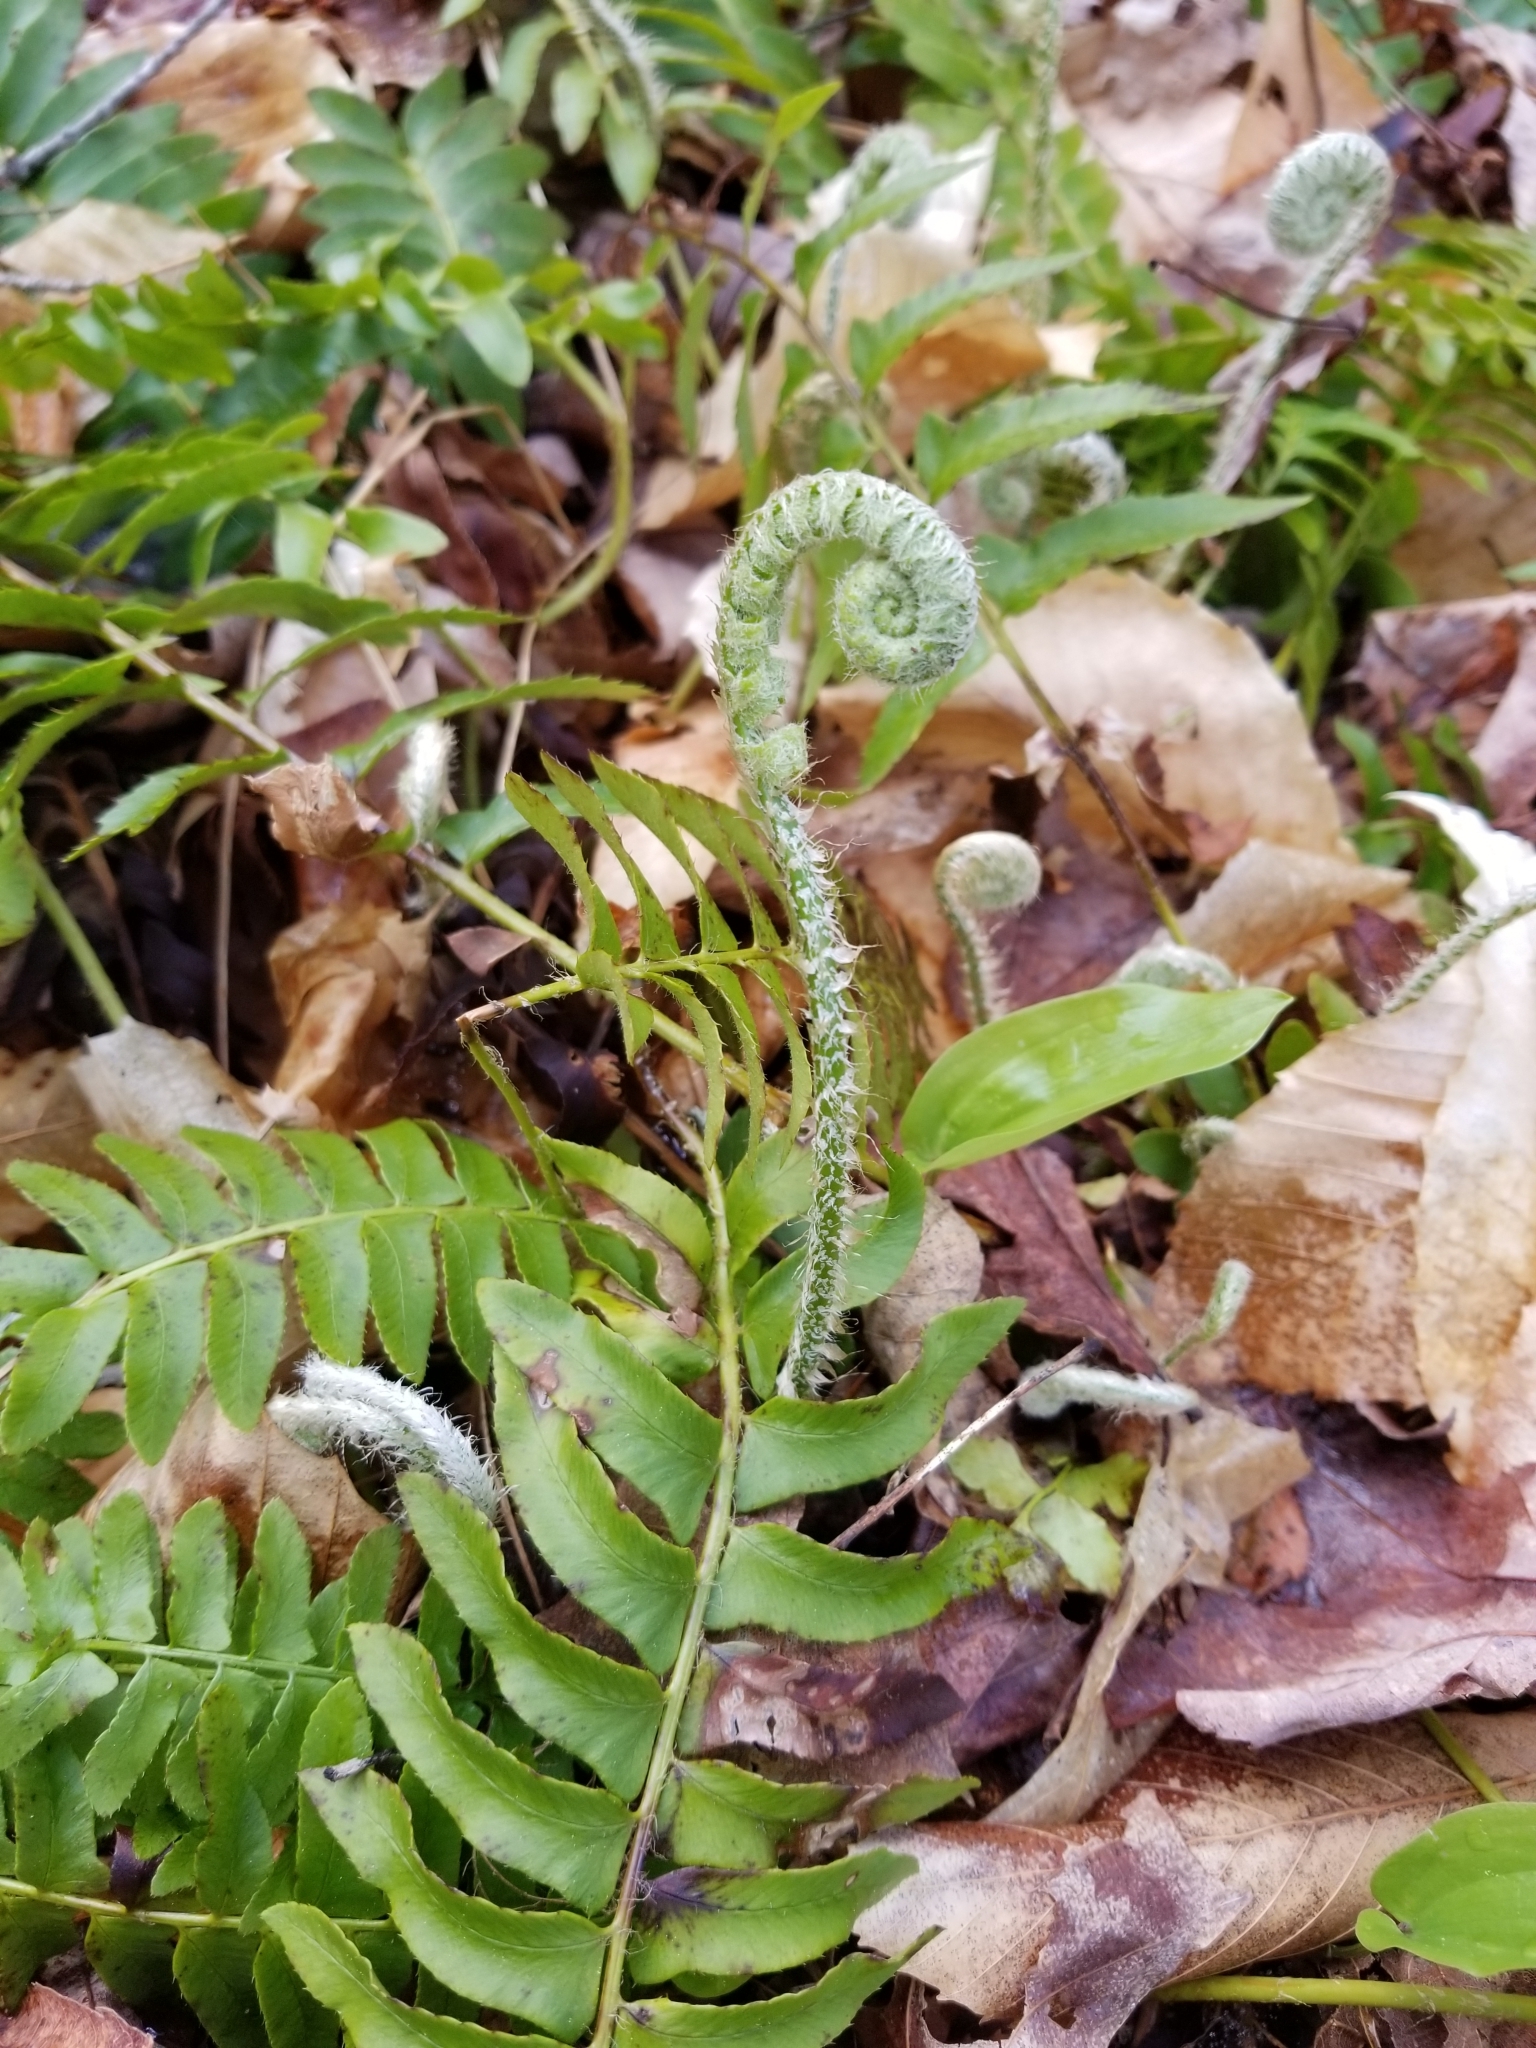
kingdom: Plantae
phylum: Tracheophyta
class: Polypodiopsida
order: Polypodiales
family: Dryopteridaceae
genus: Polystichum
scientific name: Polystichum acrostichoides
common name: Christmas fern
